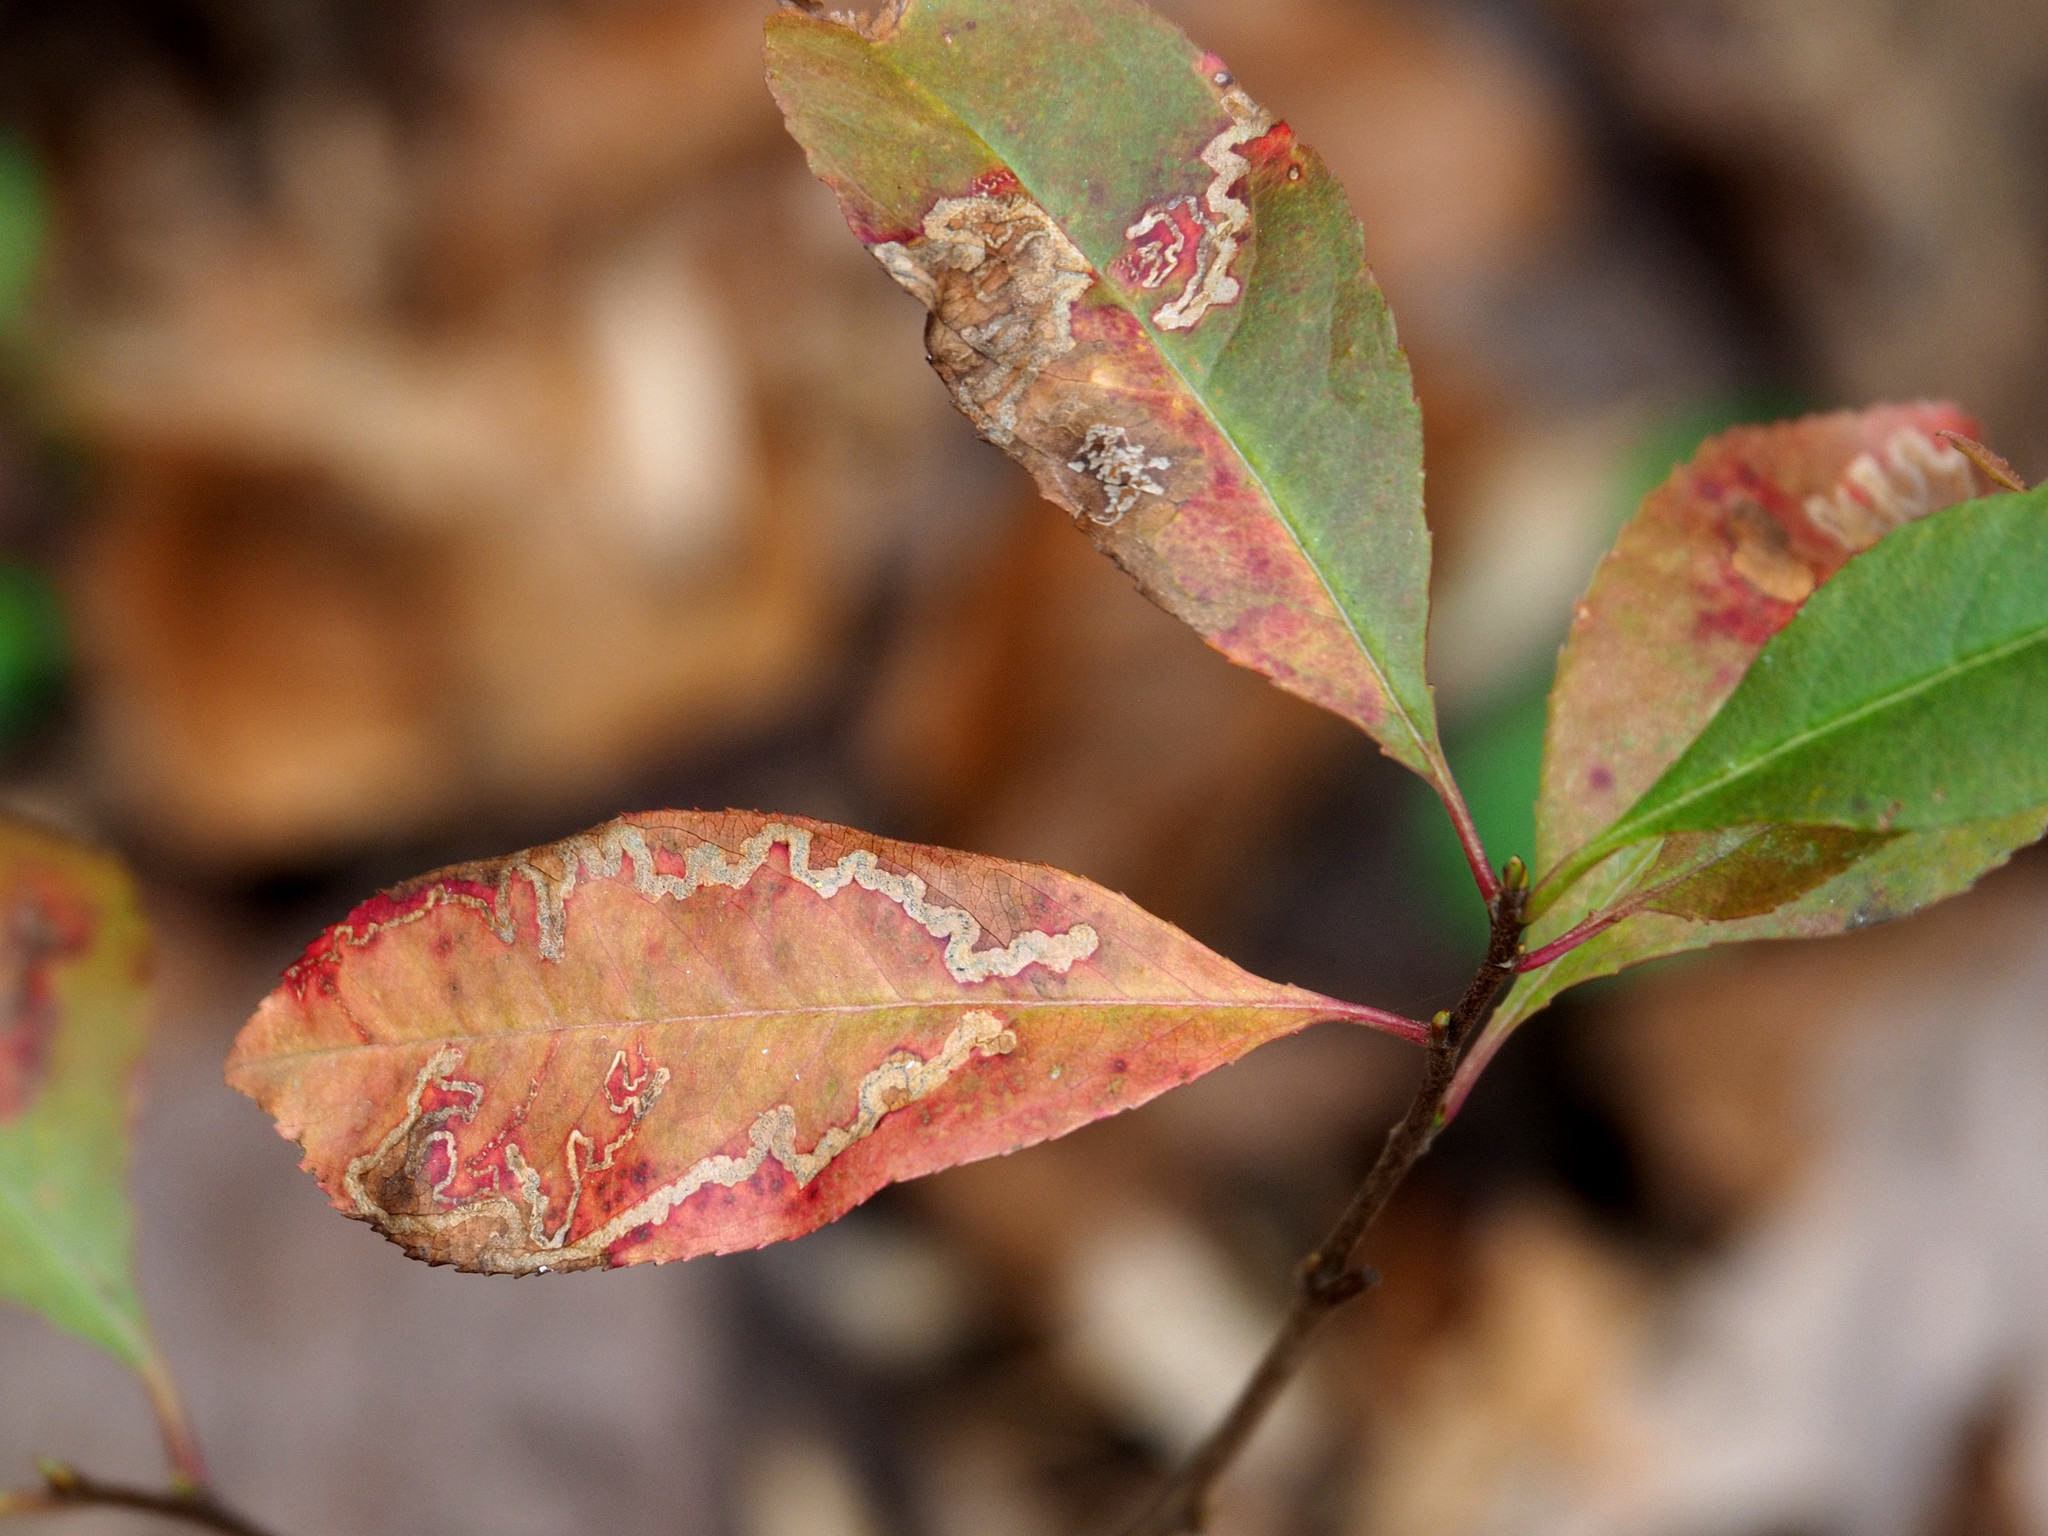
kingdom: Animalia
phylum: Arthropoda
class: Insecta
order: Lepidoptera
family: Nepticulidae
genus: Stigmella
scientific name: Stigmella prunifoliella
